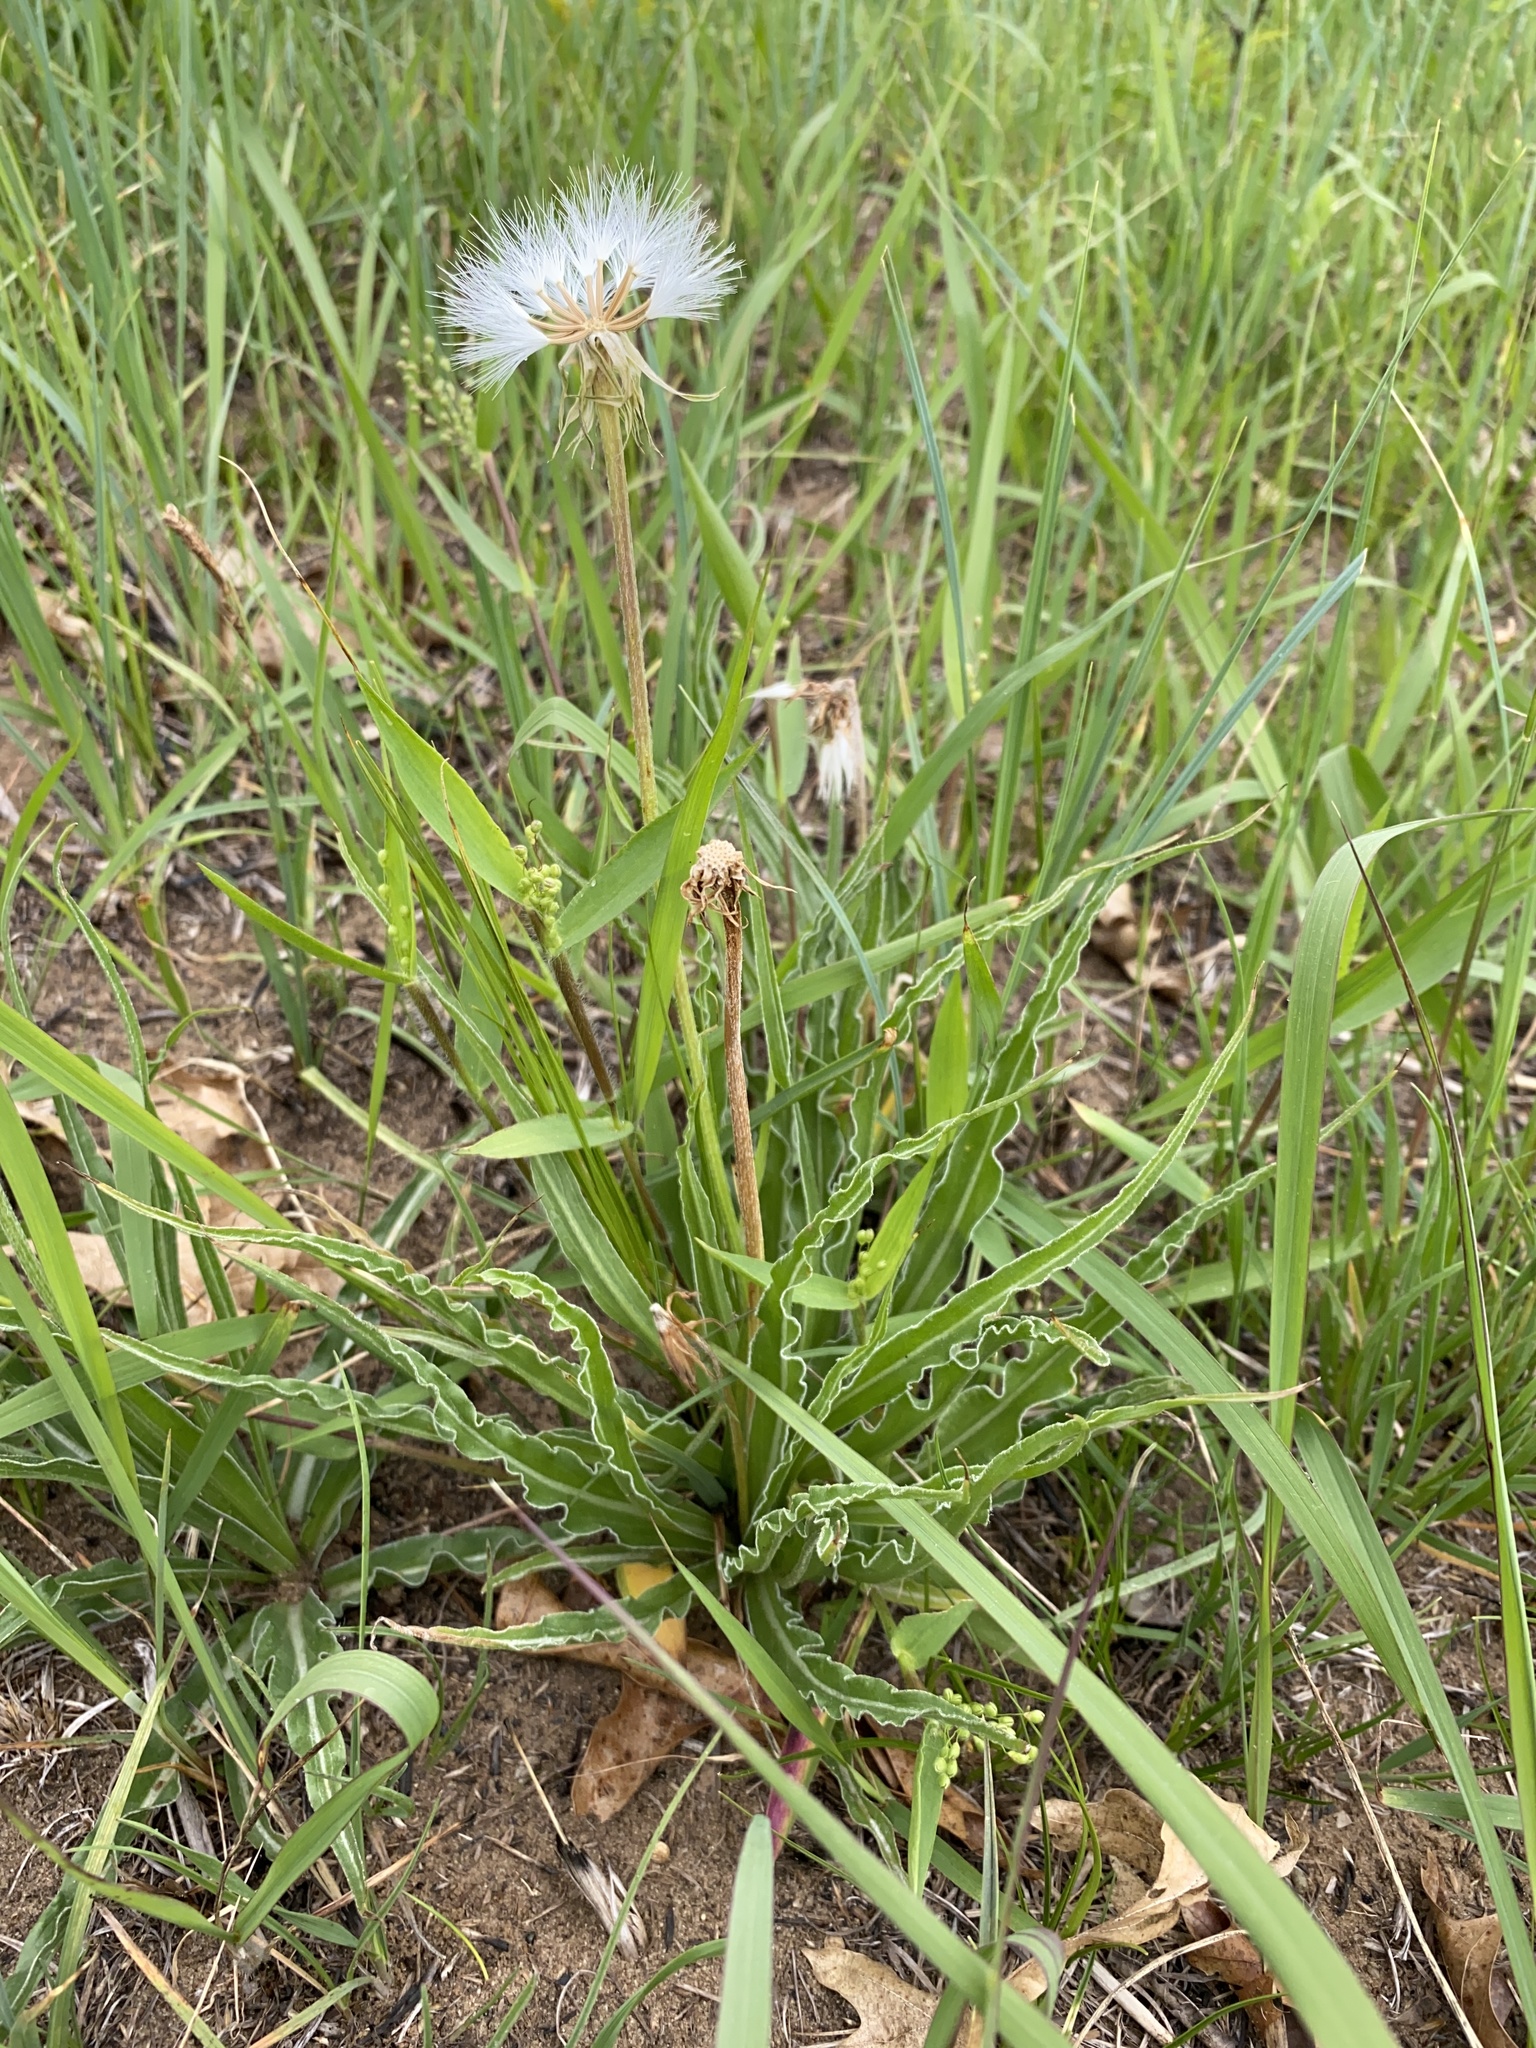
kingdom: Plantae
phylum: Tracheophyta
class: Magnoliopsida
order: Asterales
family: Asteraceae
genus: Microseris
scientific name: Microseris cuspidata
